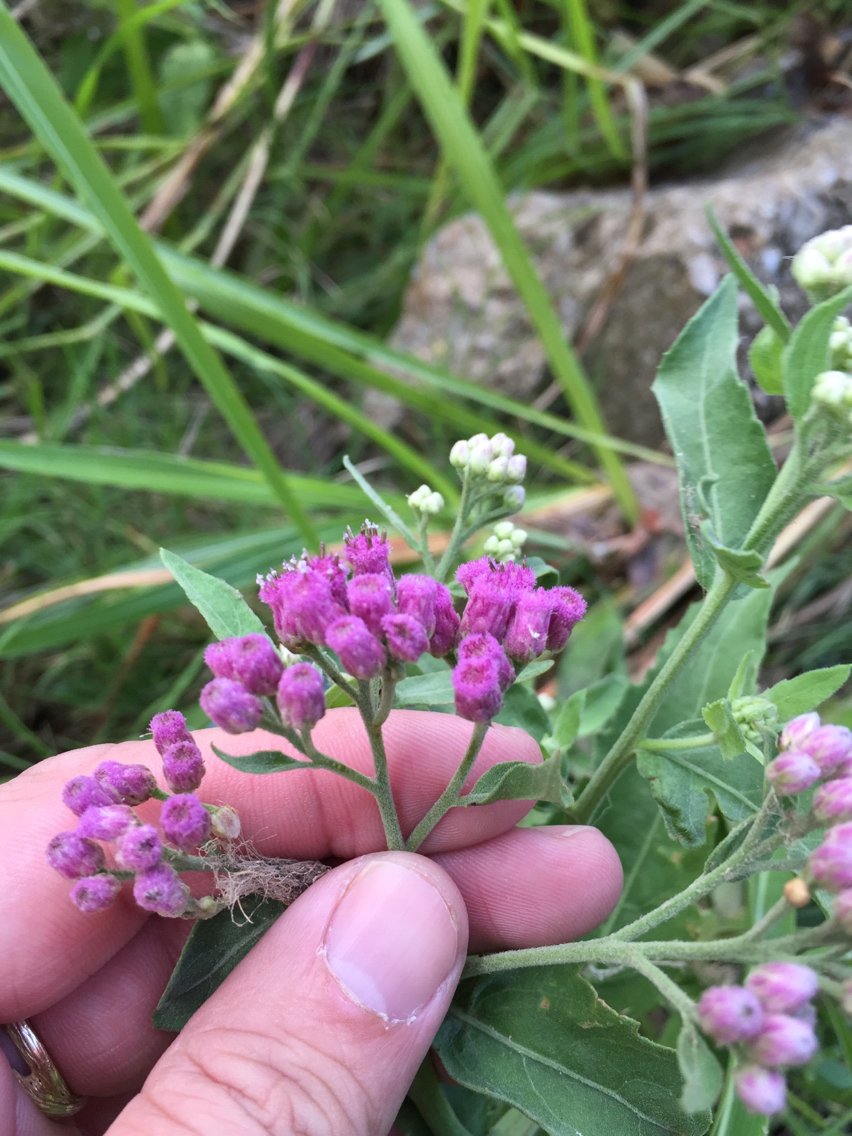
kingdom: Plantae
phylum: Tracheophyta
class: Magnoliopsida
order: Asterales
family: Asteraceae
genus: Pluchea
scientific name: Pluchea odorata
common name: Saltmarsh fleabane
